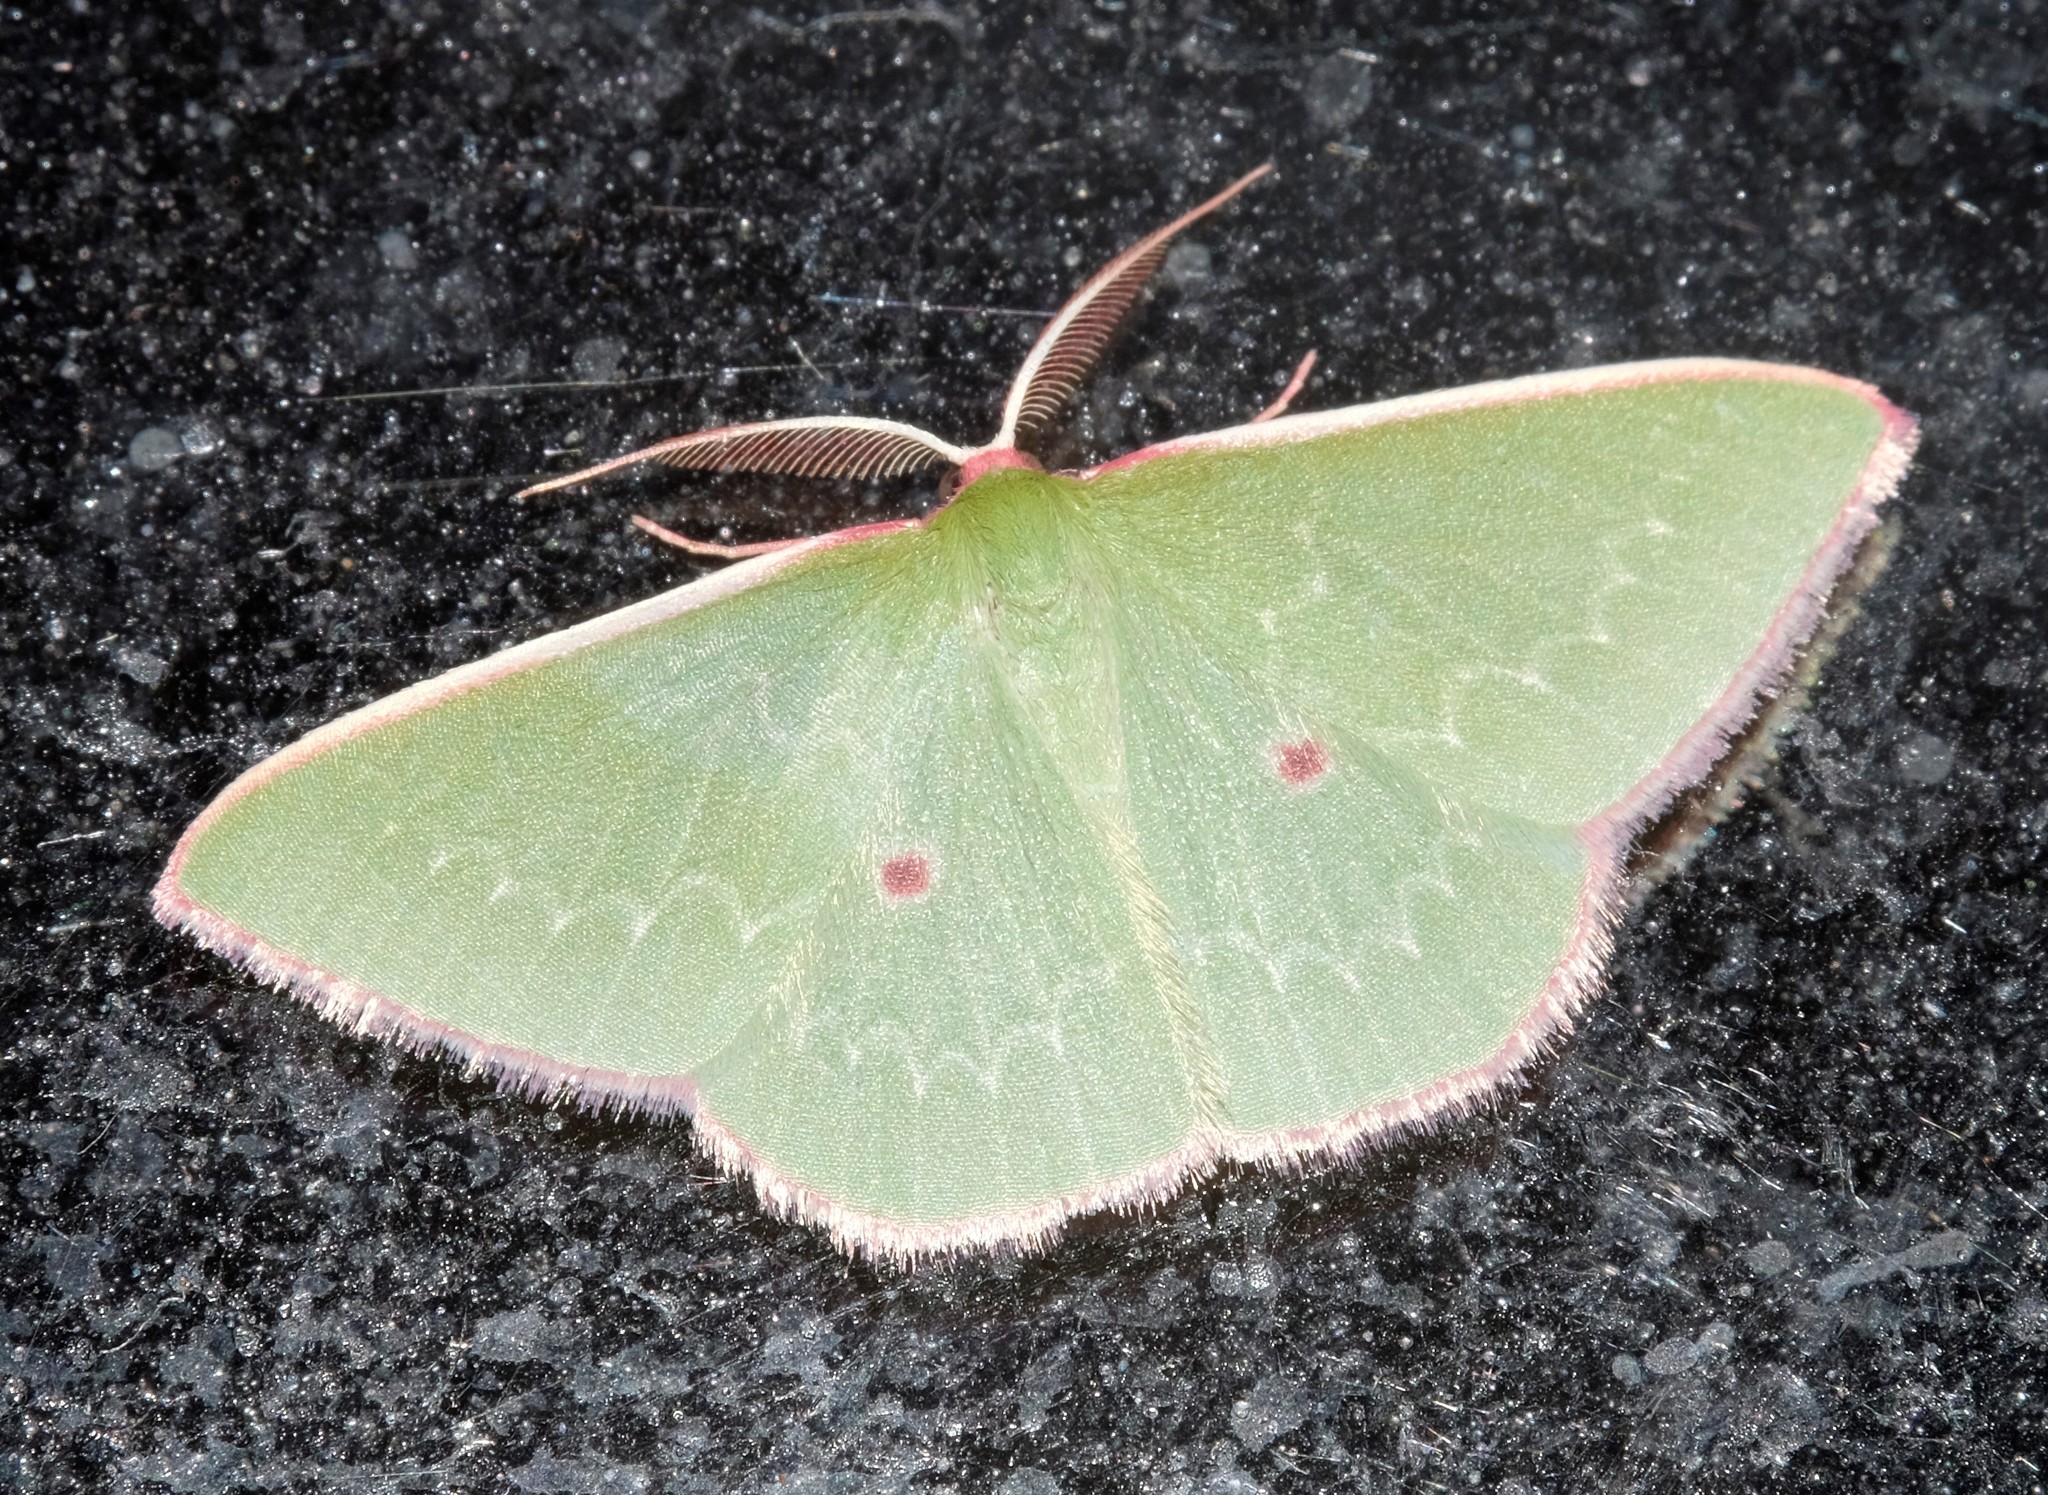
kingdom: Animalia
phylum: Arthropoda
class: Insecta
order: Lepidoptera
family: Geometridae
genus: Chlorocoma
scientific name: Chlorocoma cadmaria
